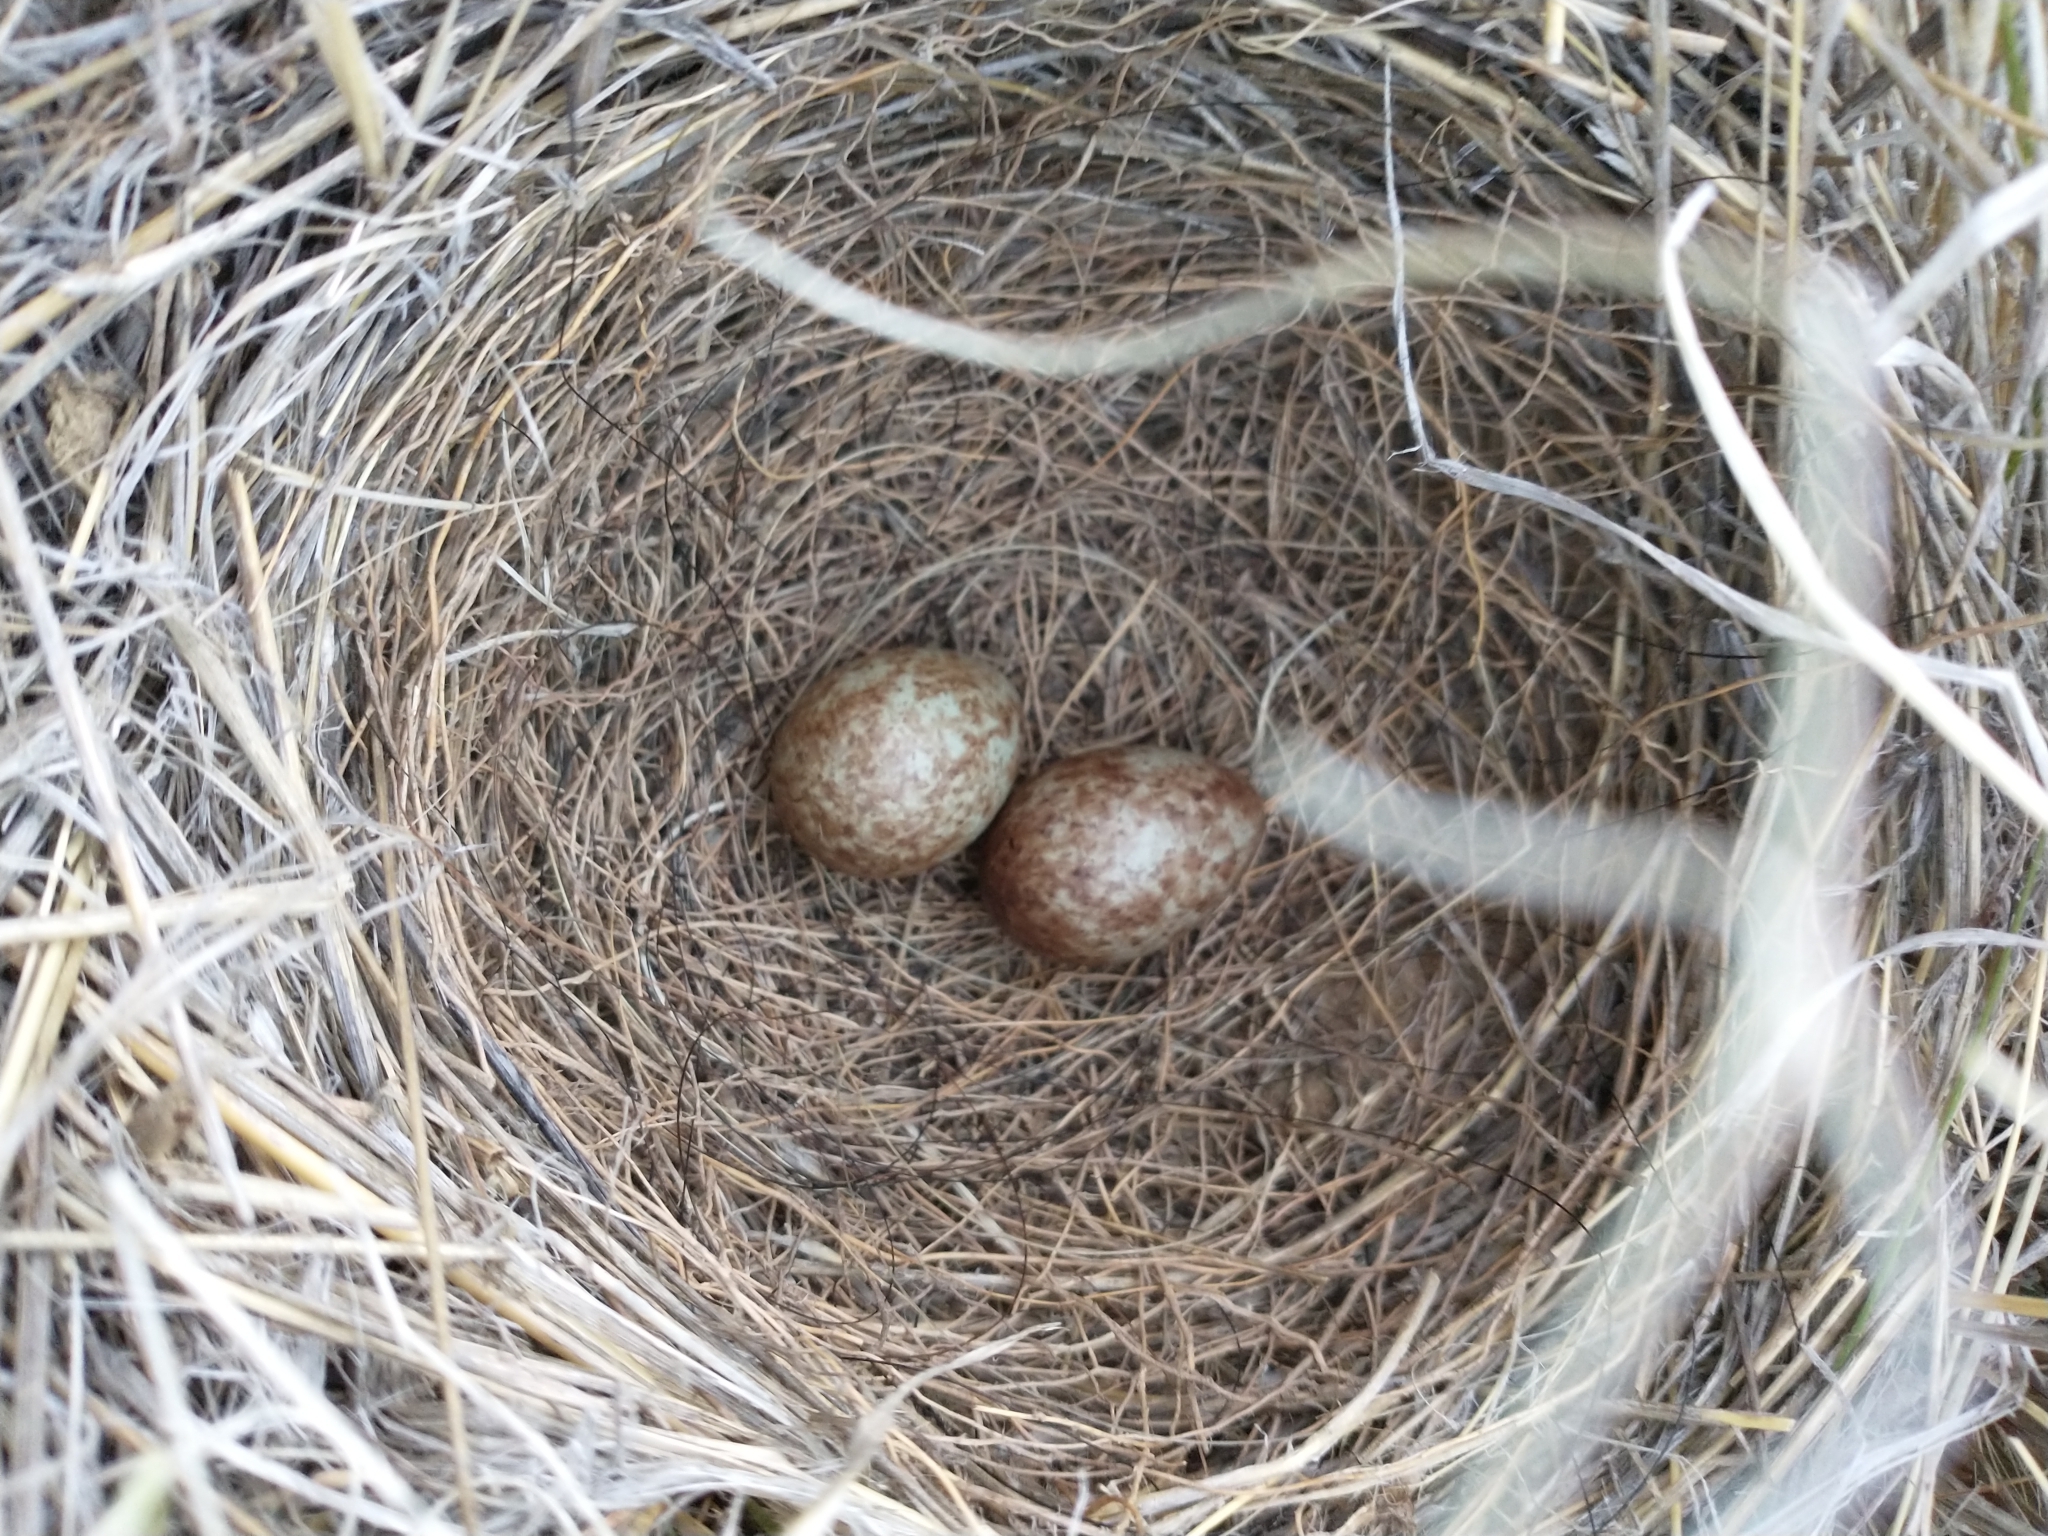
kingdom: Animalia
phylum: Chordata
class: Aves
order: Passeriformes
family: Icteridae
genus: Euphagus
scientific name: Euphagus cyanocephalus
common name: Brewer's blackbird
